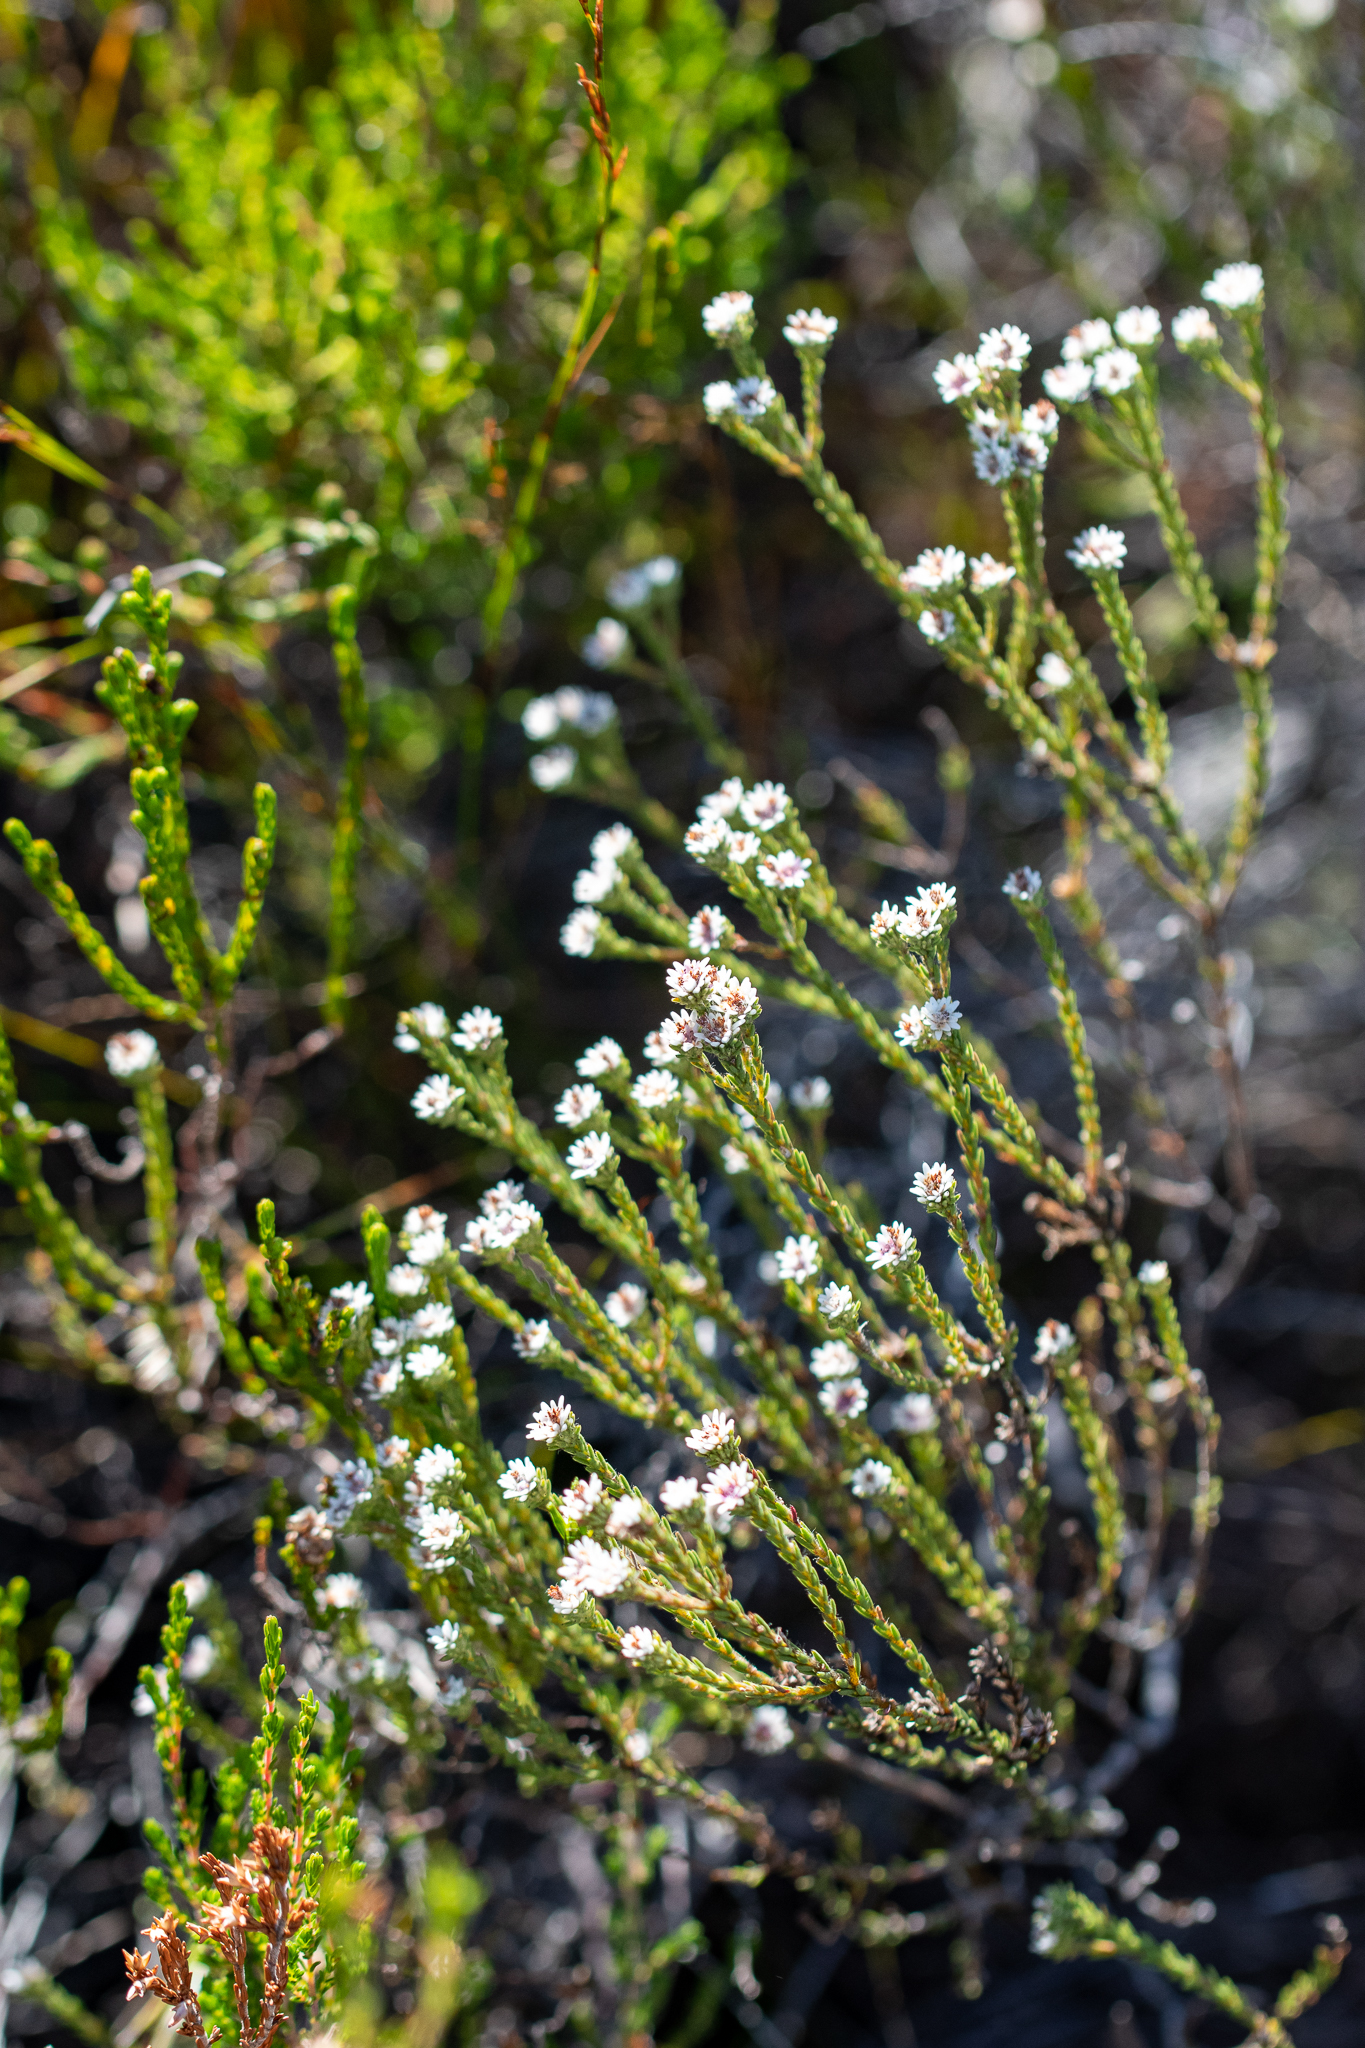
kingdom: Plantae
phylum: Tracheophyta
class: Magnoliopsida
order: Bruniales
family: Bruniaceae
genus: Staavia
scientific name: Staavia radiata
